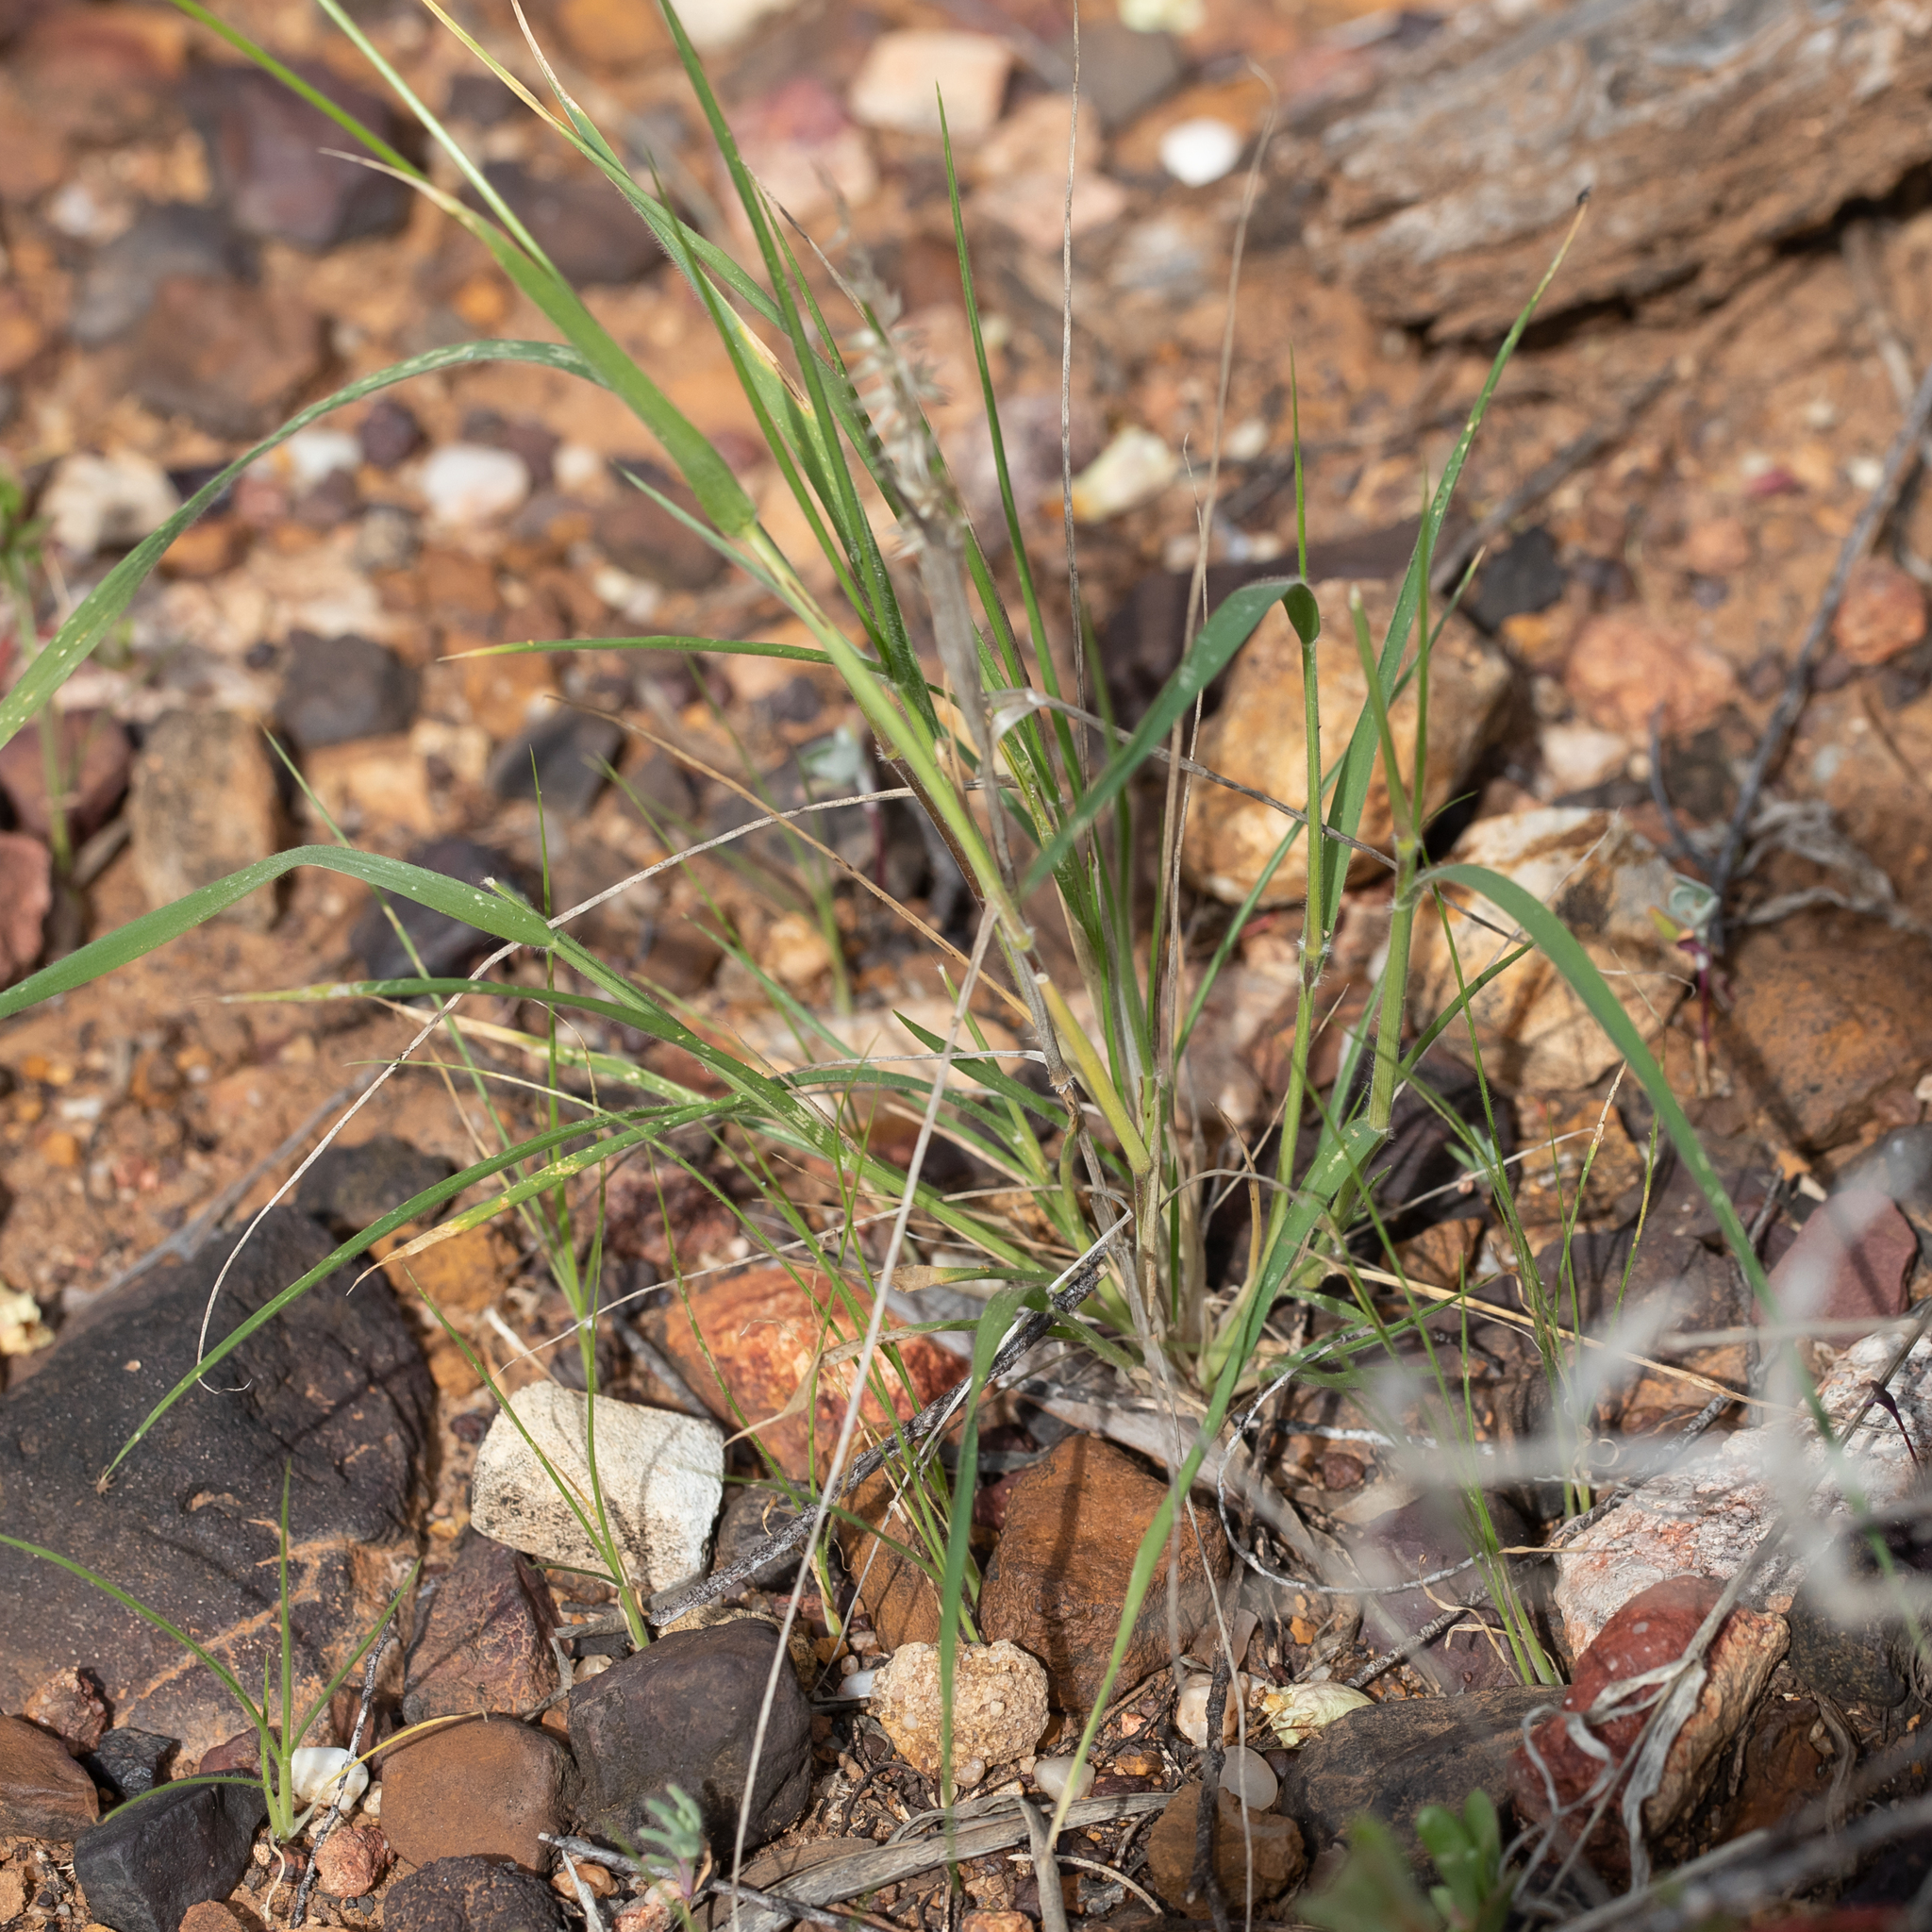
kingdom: Plantae
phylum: Tracheophyta
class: Liliopsida
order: Poales
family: Poaceae
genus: Enneapogon
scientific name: Enneapogon polyphyllus
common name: Leafy nineawn
